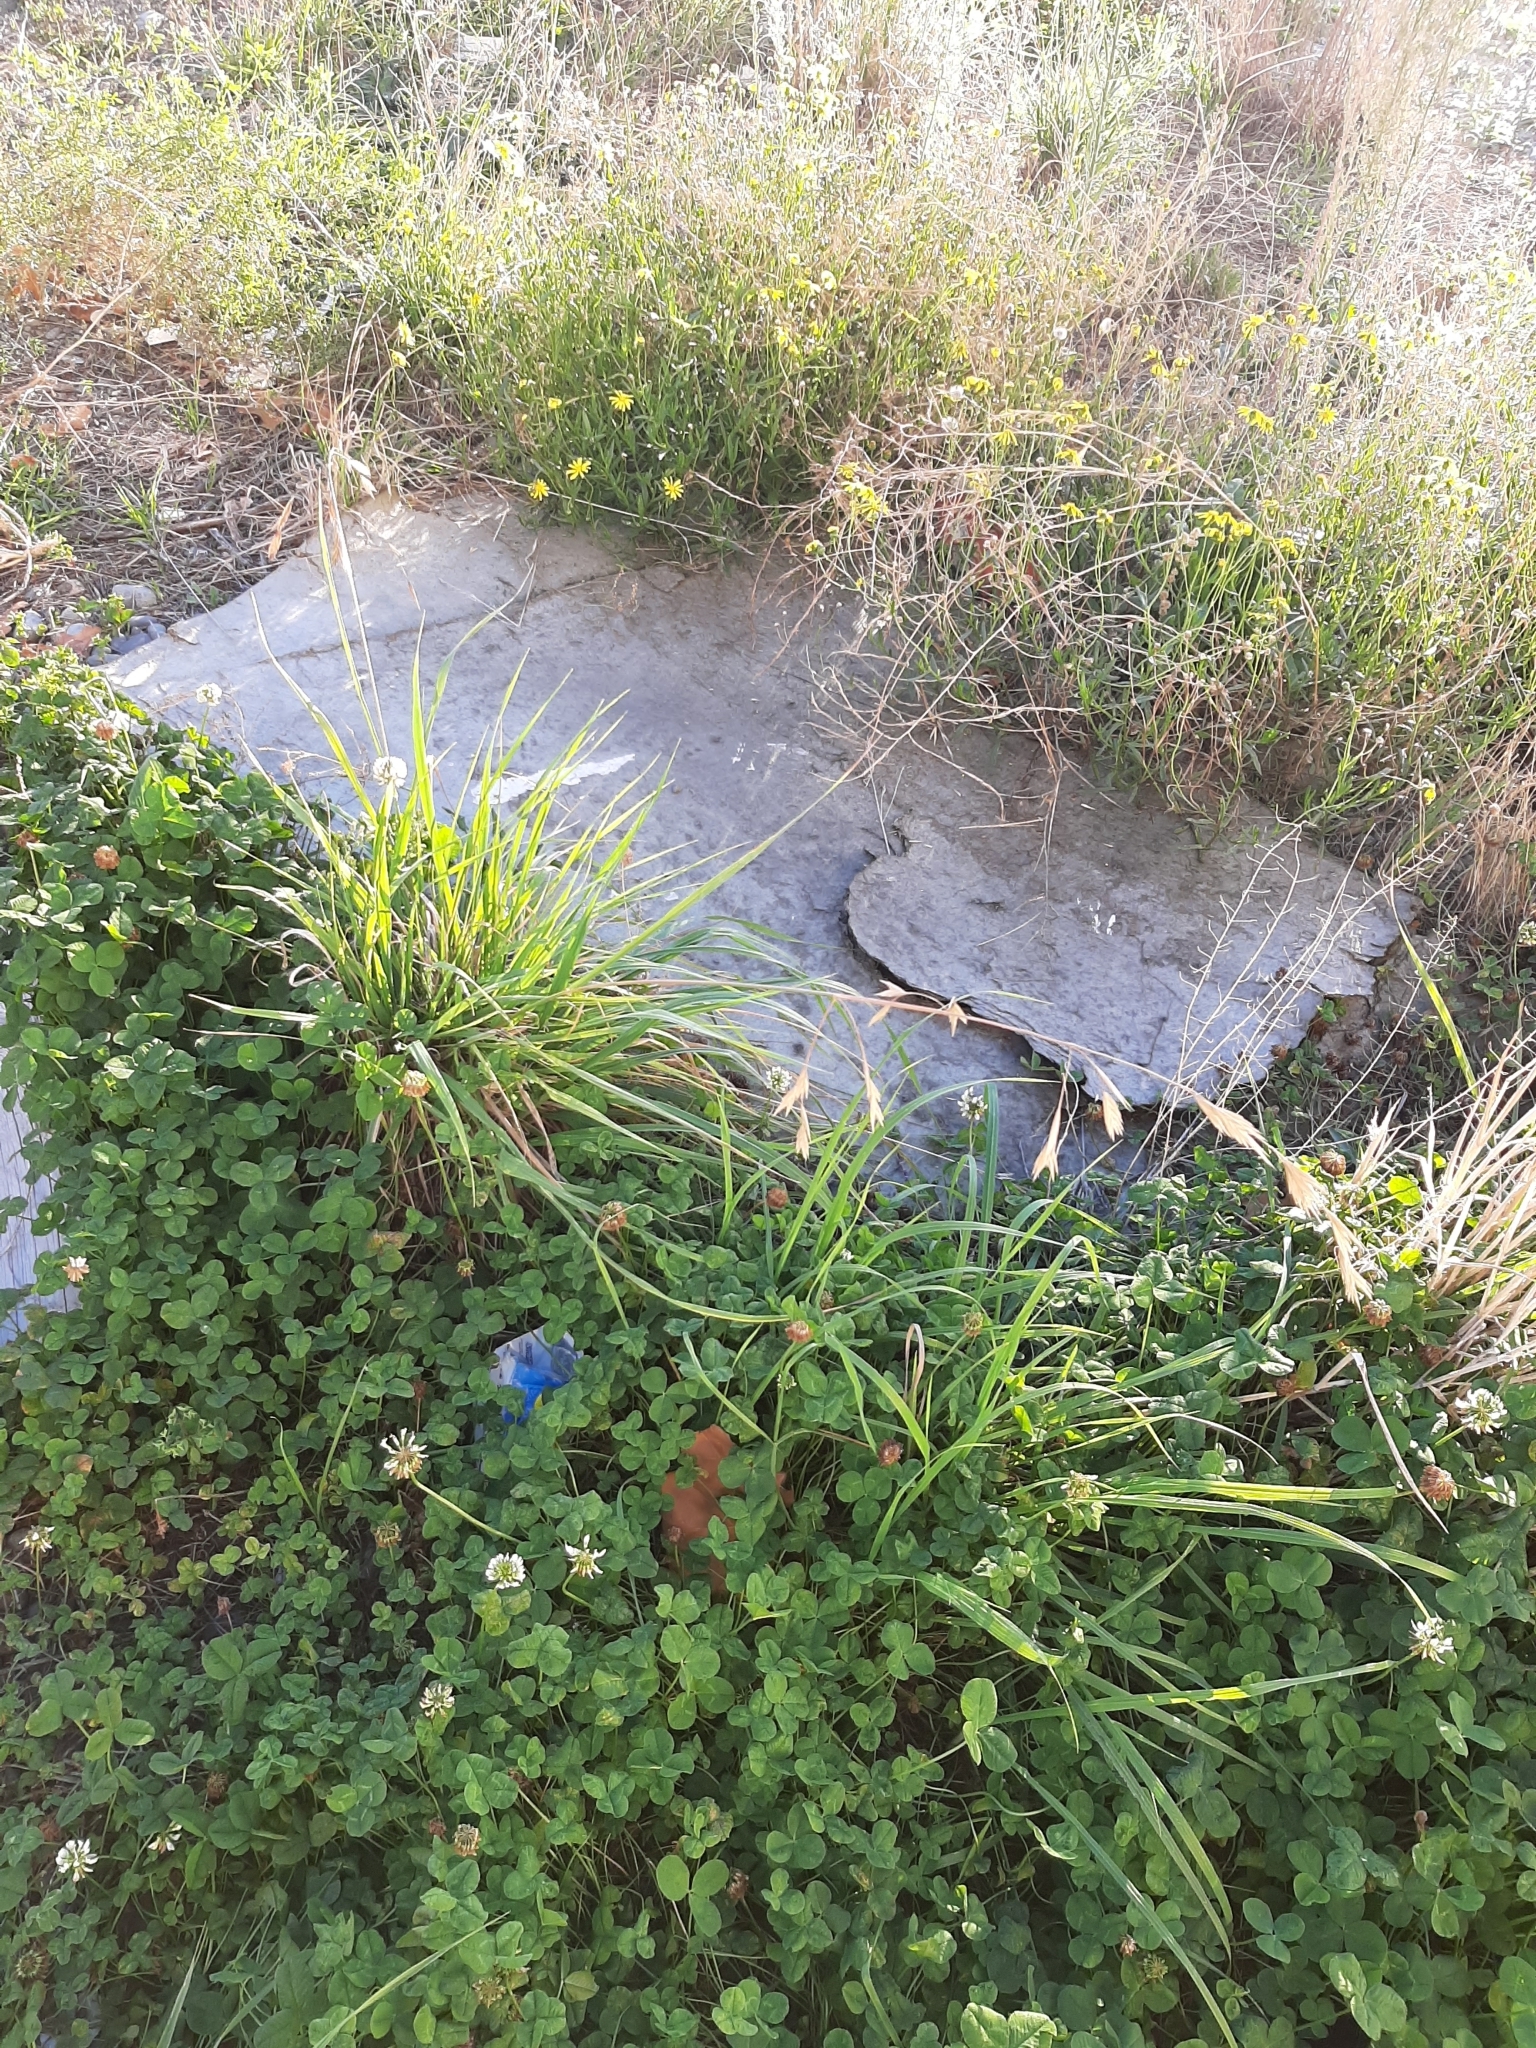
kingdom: Plantae
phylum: Tracheophyta
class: Liliopsida
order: Poales
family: Poaceae
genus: Bromus
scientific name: Bromus catharticus
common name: Rescuegrass
